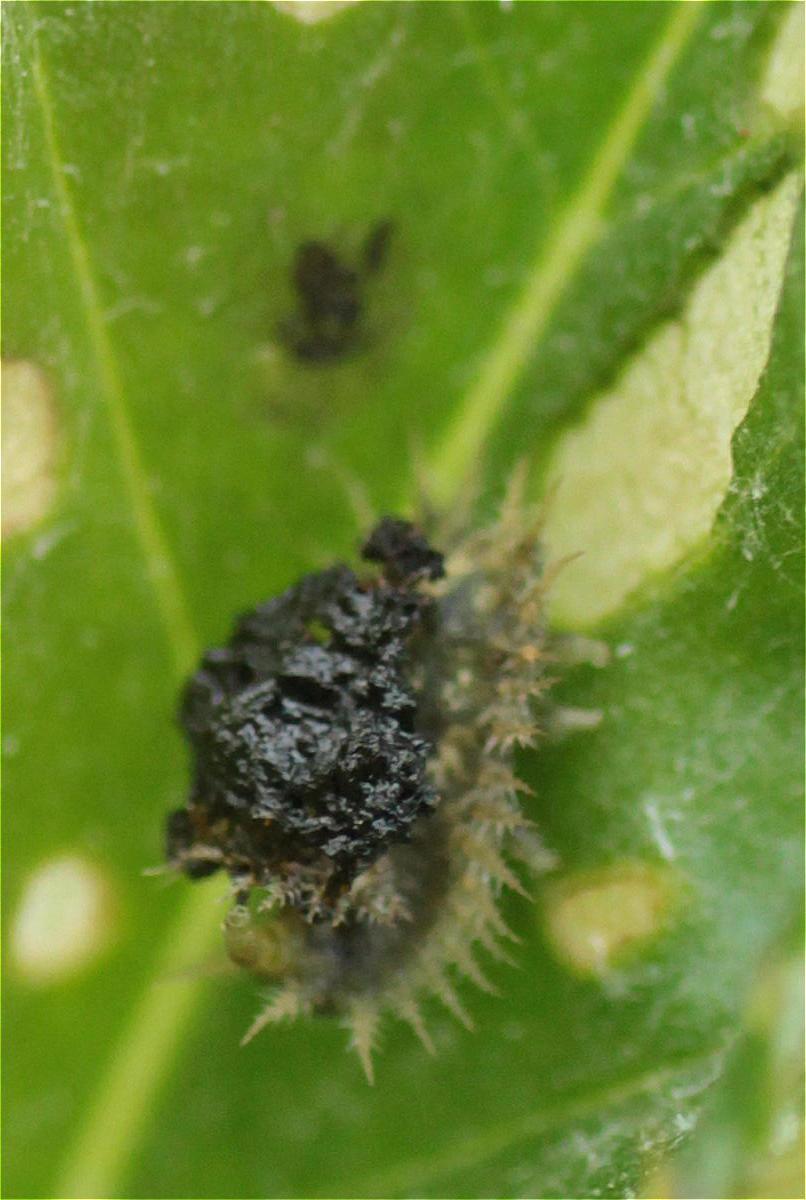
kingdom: Animalia
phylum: Arthropoda
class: Insecta
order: Coleoptera
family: Chrysomelidae
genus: Cassida
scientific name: Cassida
